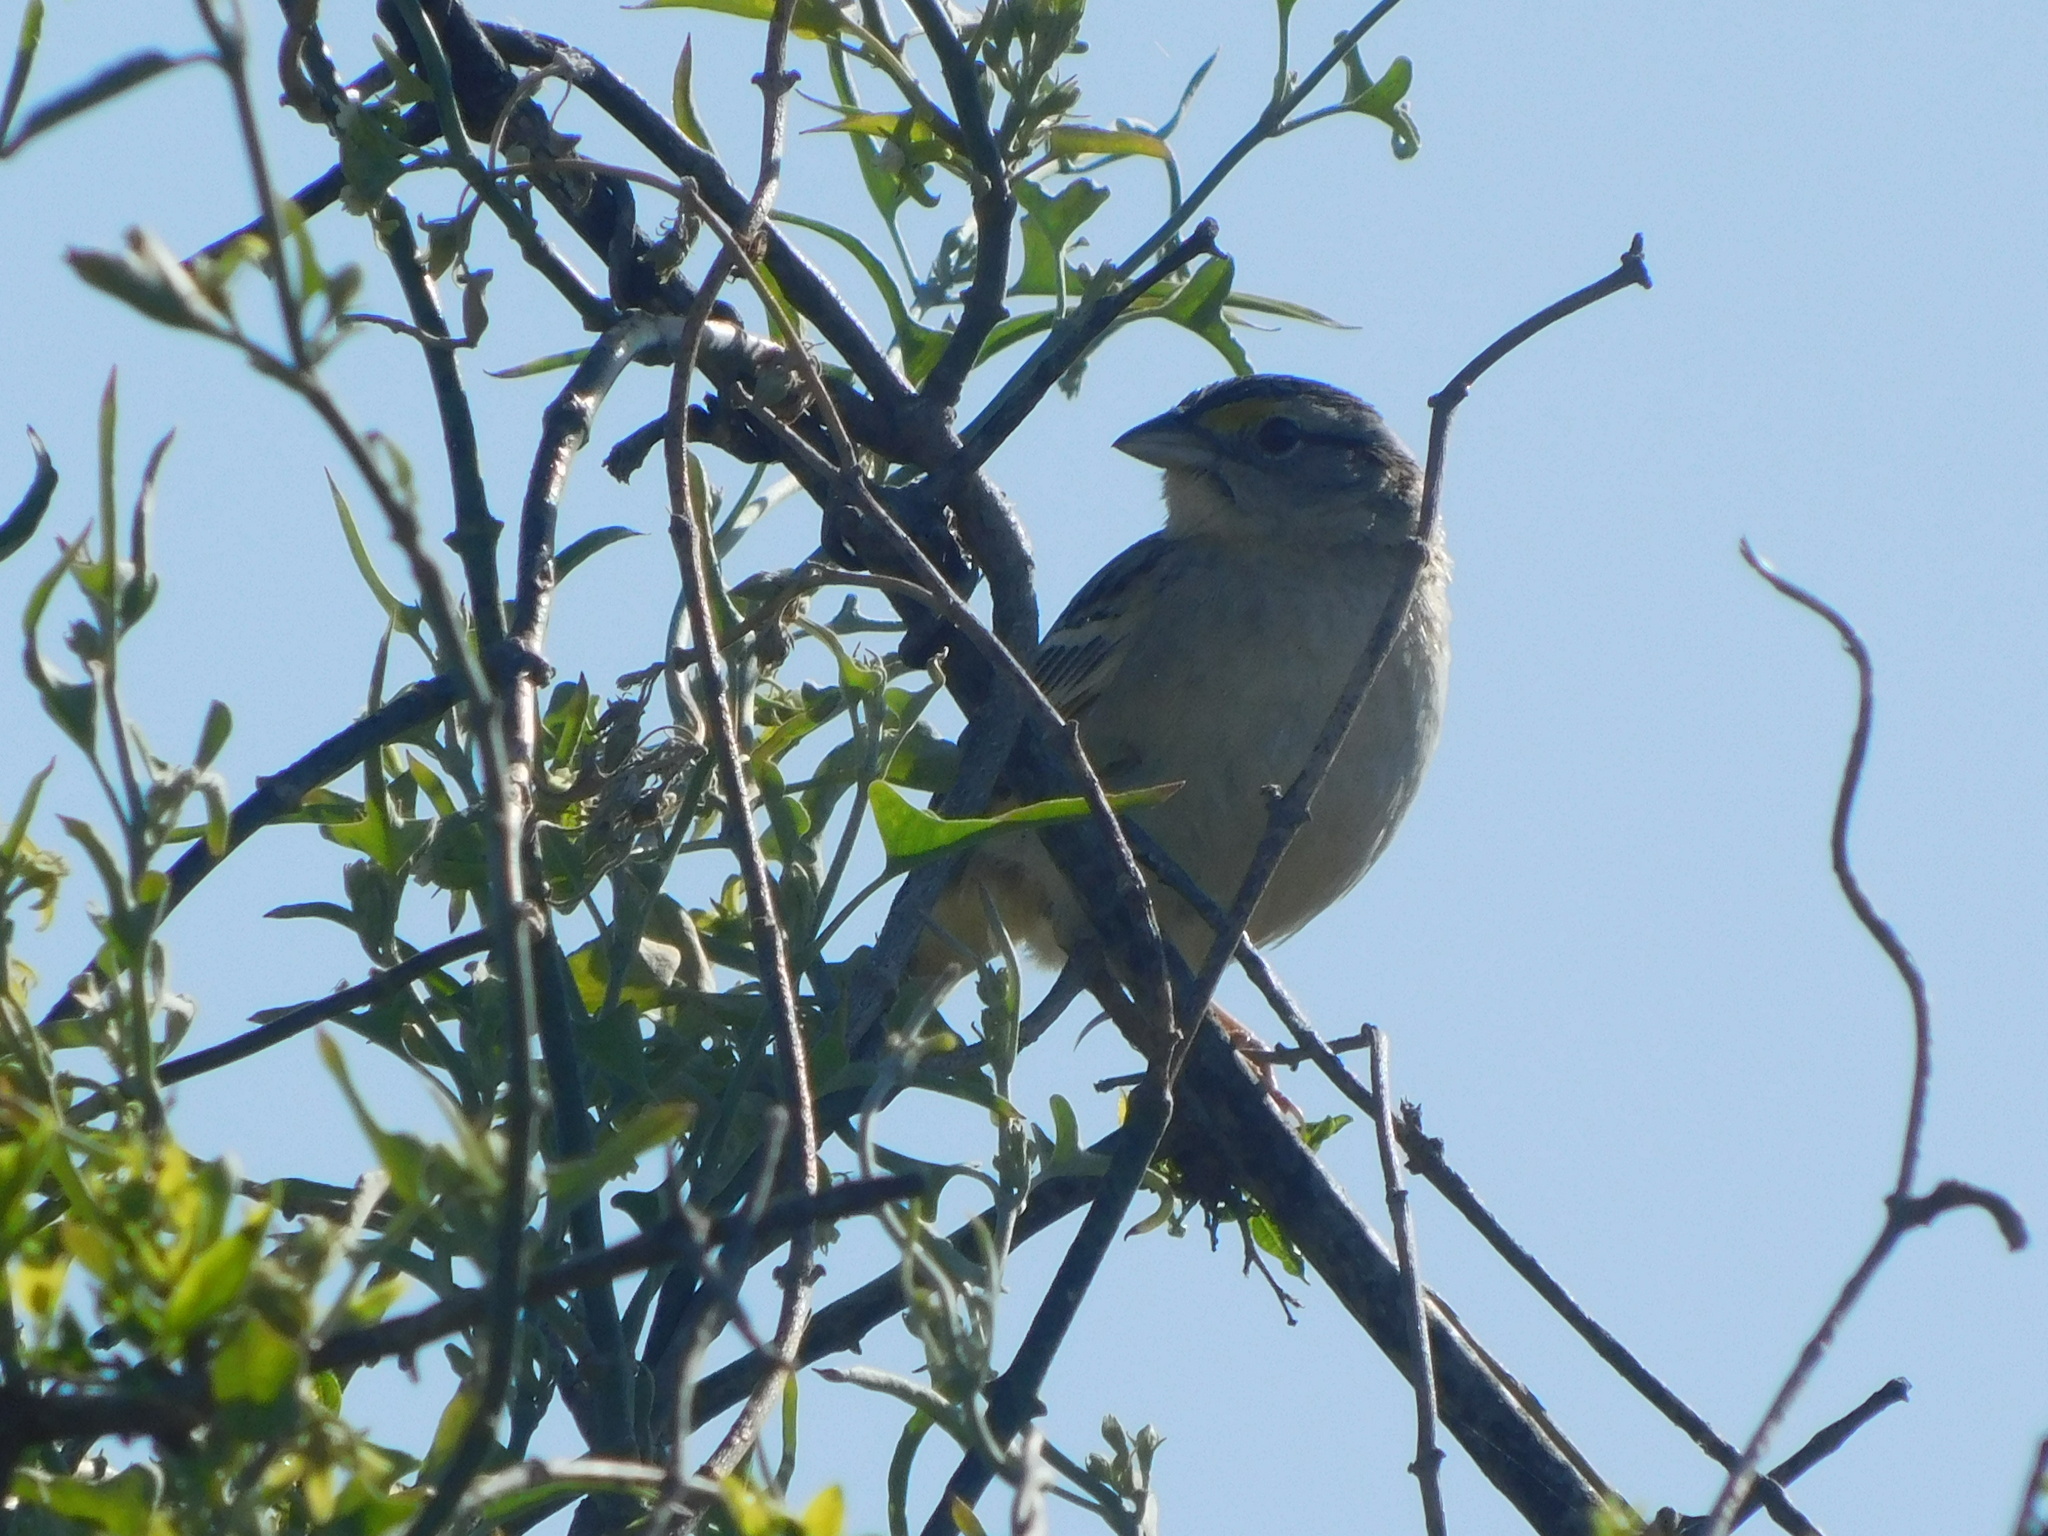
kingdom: Animalia
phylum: Chordata
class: Aves
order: Passeriformes
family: Passerellidae
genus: Ammodramus
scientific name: Ammodramus humeralis
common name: Grassland sparrow
